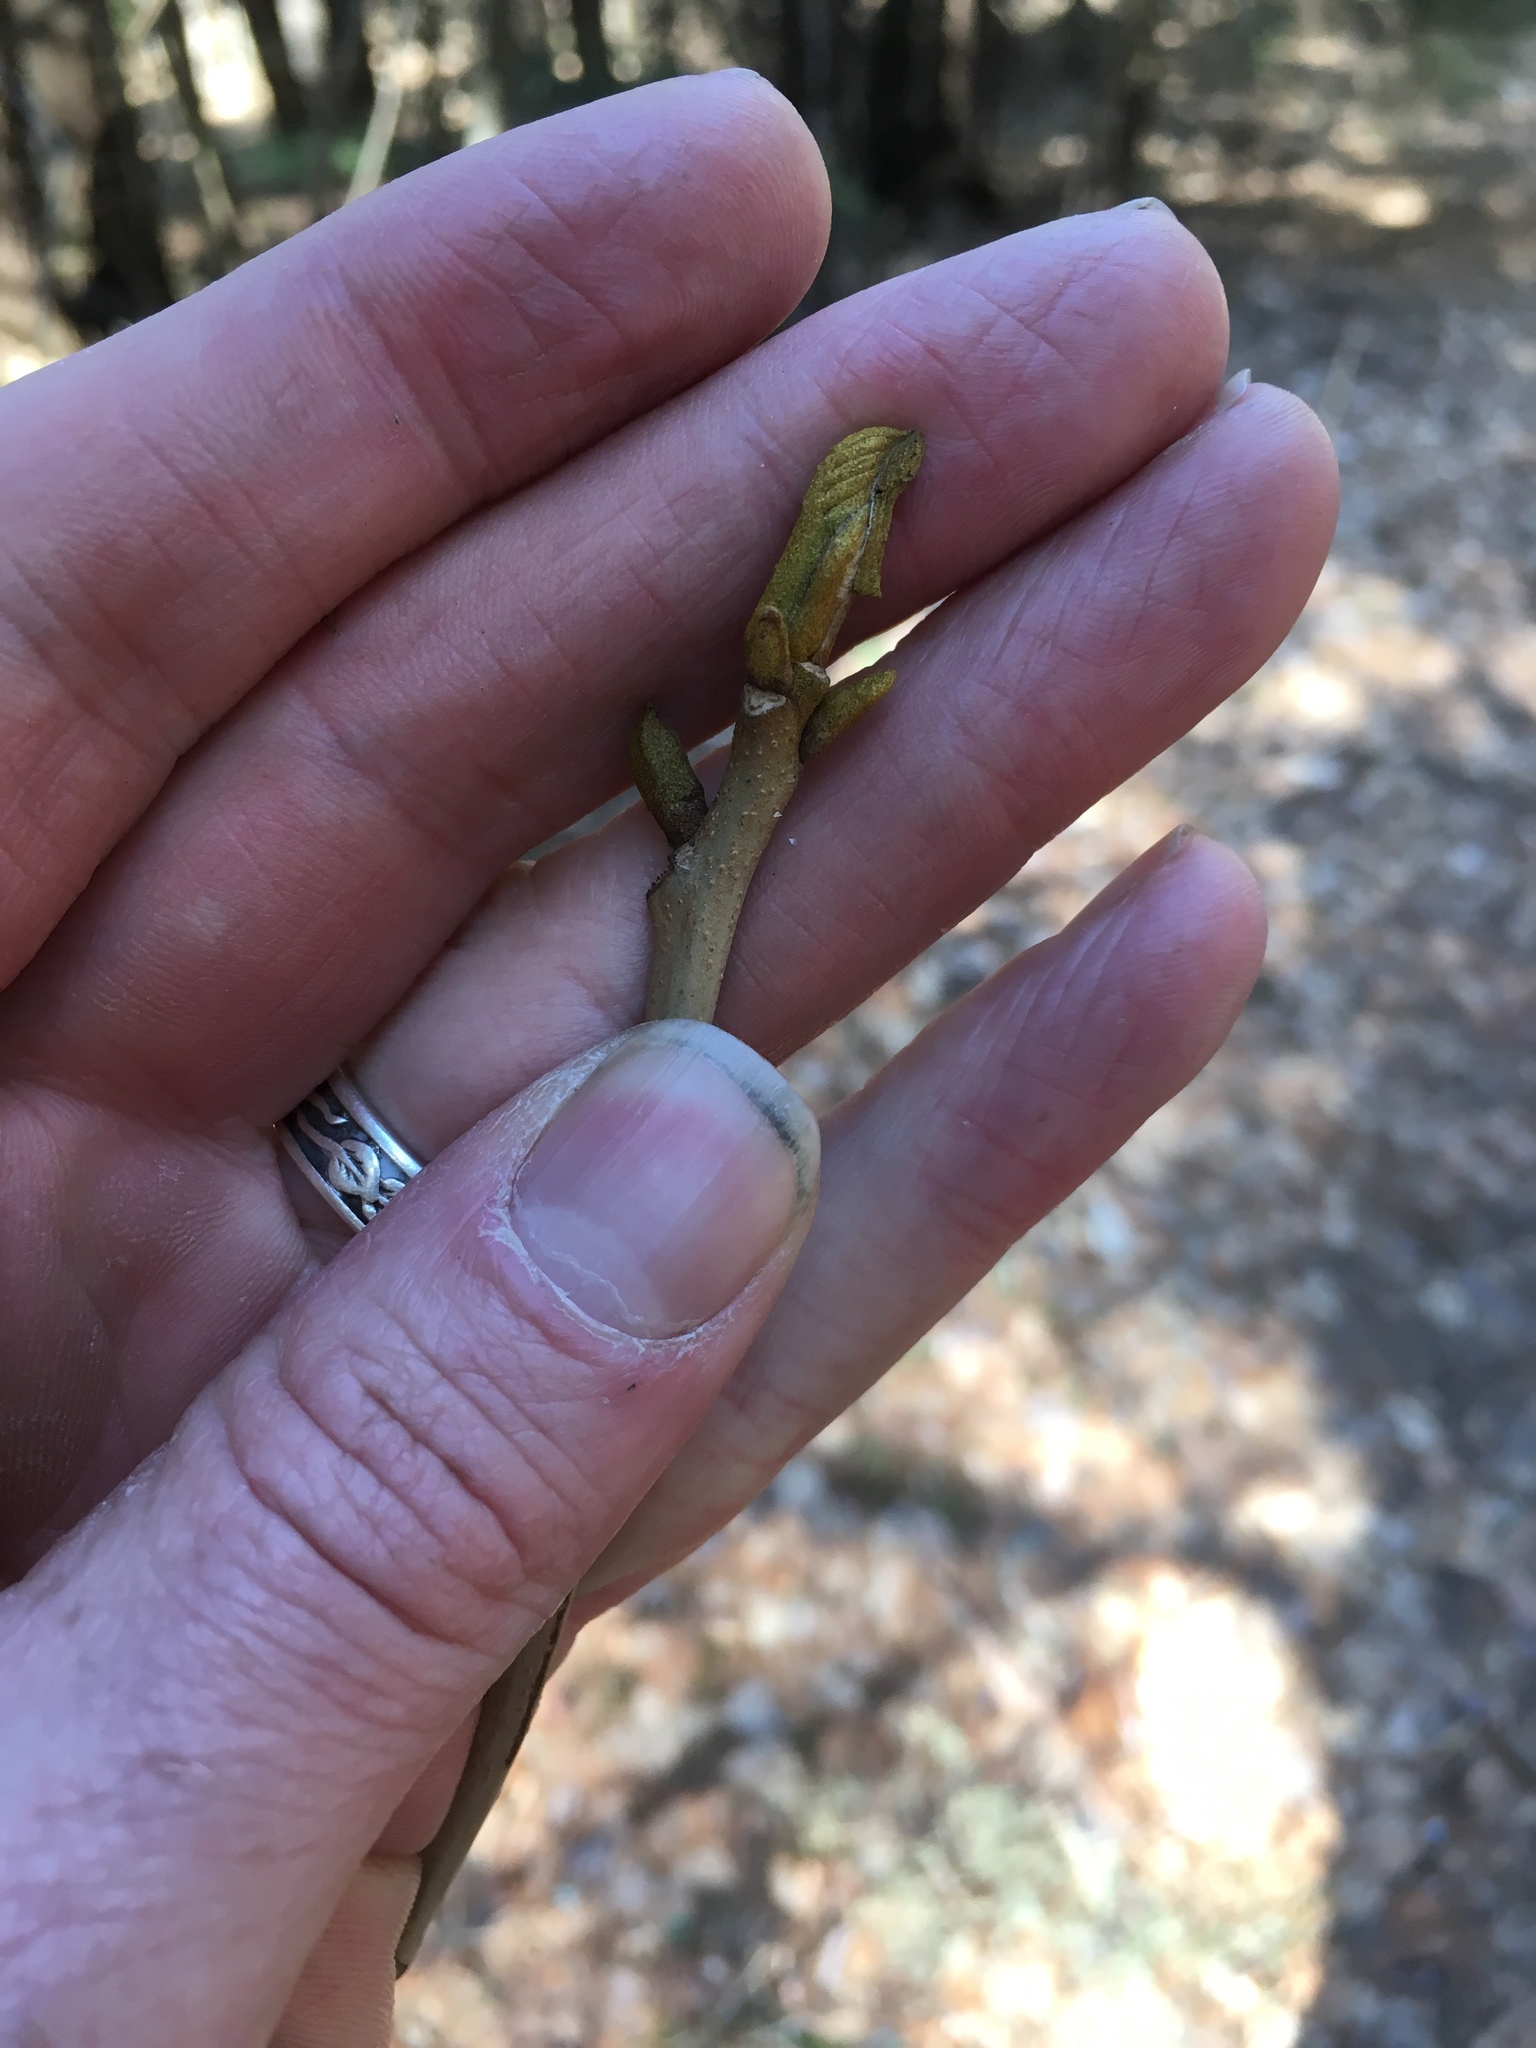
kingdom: Plantae
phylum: Tracheophyta
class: Magnoliopsida
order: Fagales
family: Juglandaceae
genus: Carya
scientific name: Carya cordiformis
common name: Bitternut hickory
